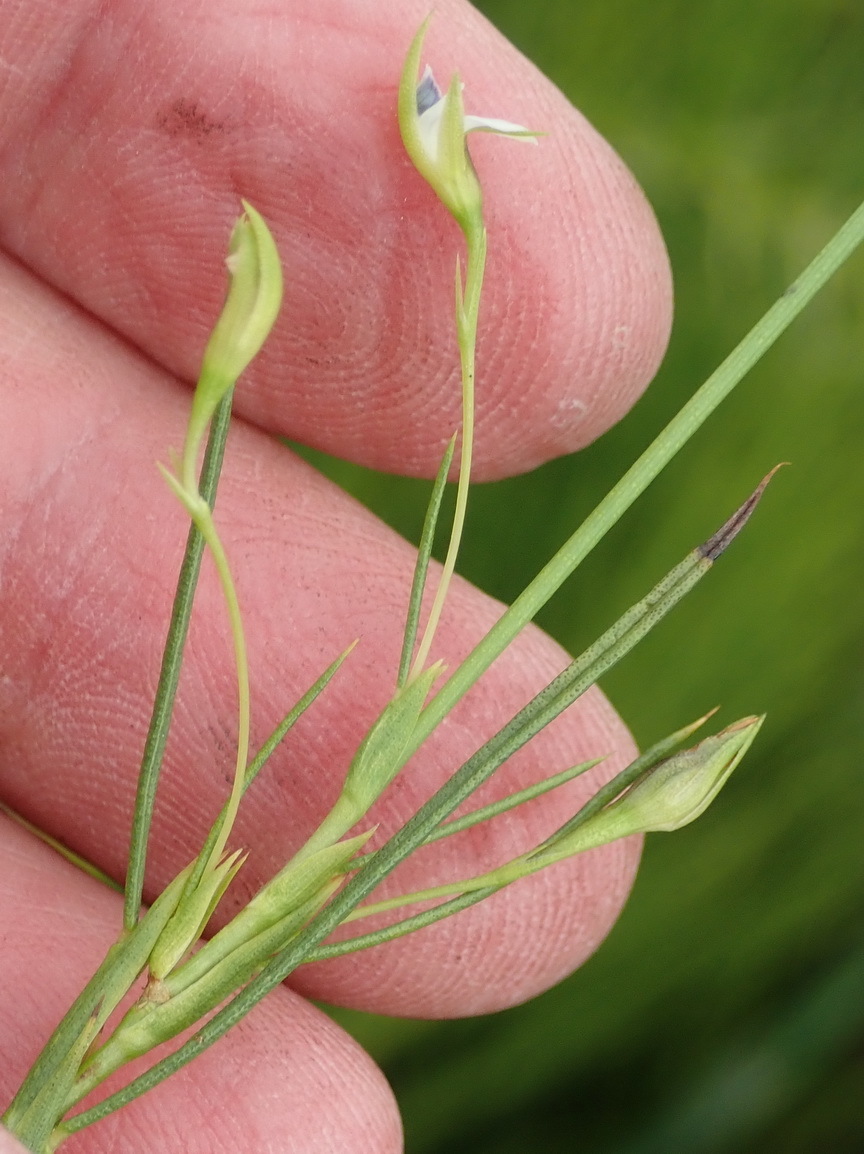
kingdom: Plantae
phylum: Tracheophyta
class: Magnoliopsida
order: Fabales
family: Fabaceae
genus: Psoralea
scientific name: Psoralea
